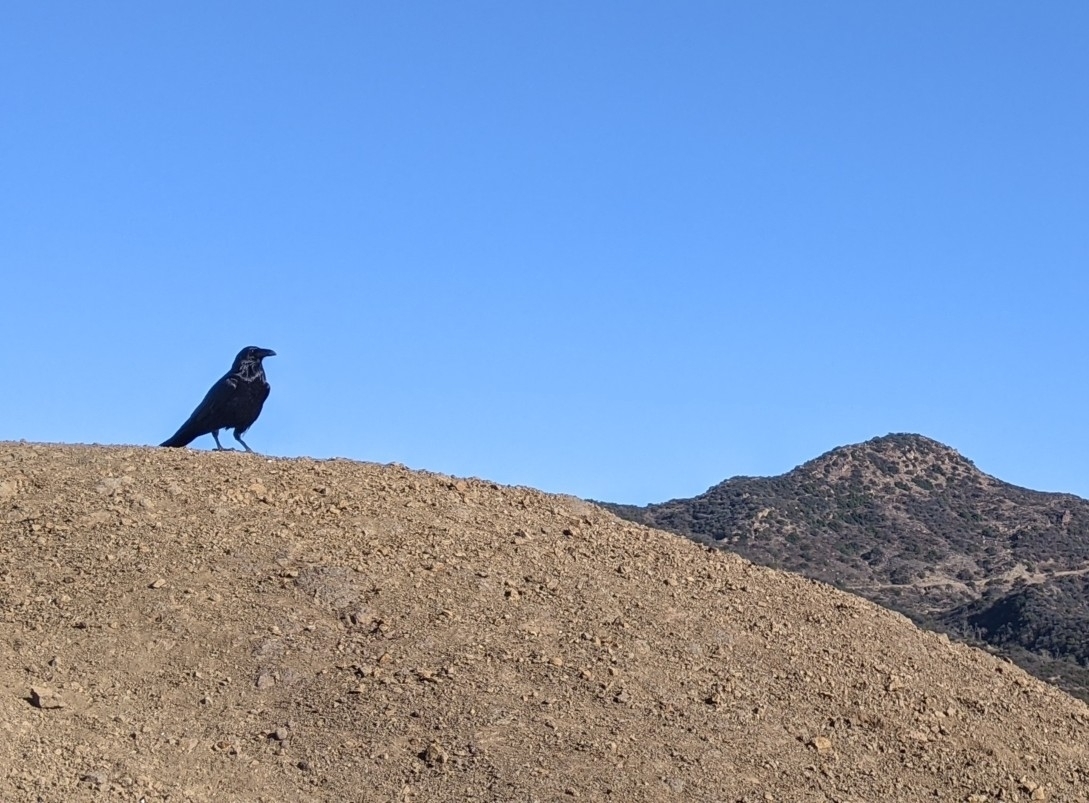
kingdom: Animalia
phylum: Chordata
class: Aves
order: Passeriformes
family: Corvidae
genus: Corvus
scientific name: Corvus corax
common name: Common raven
